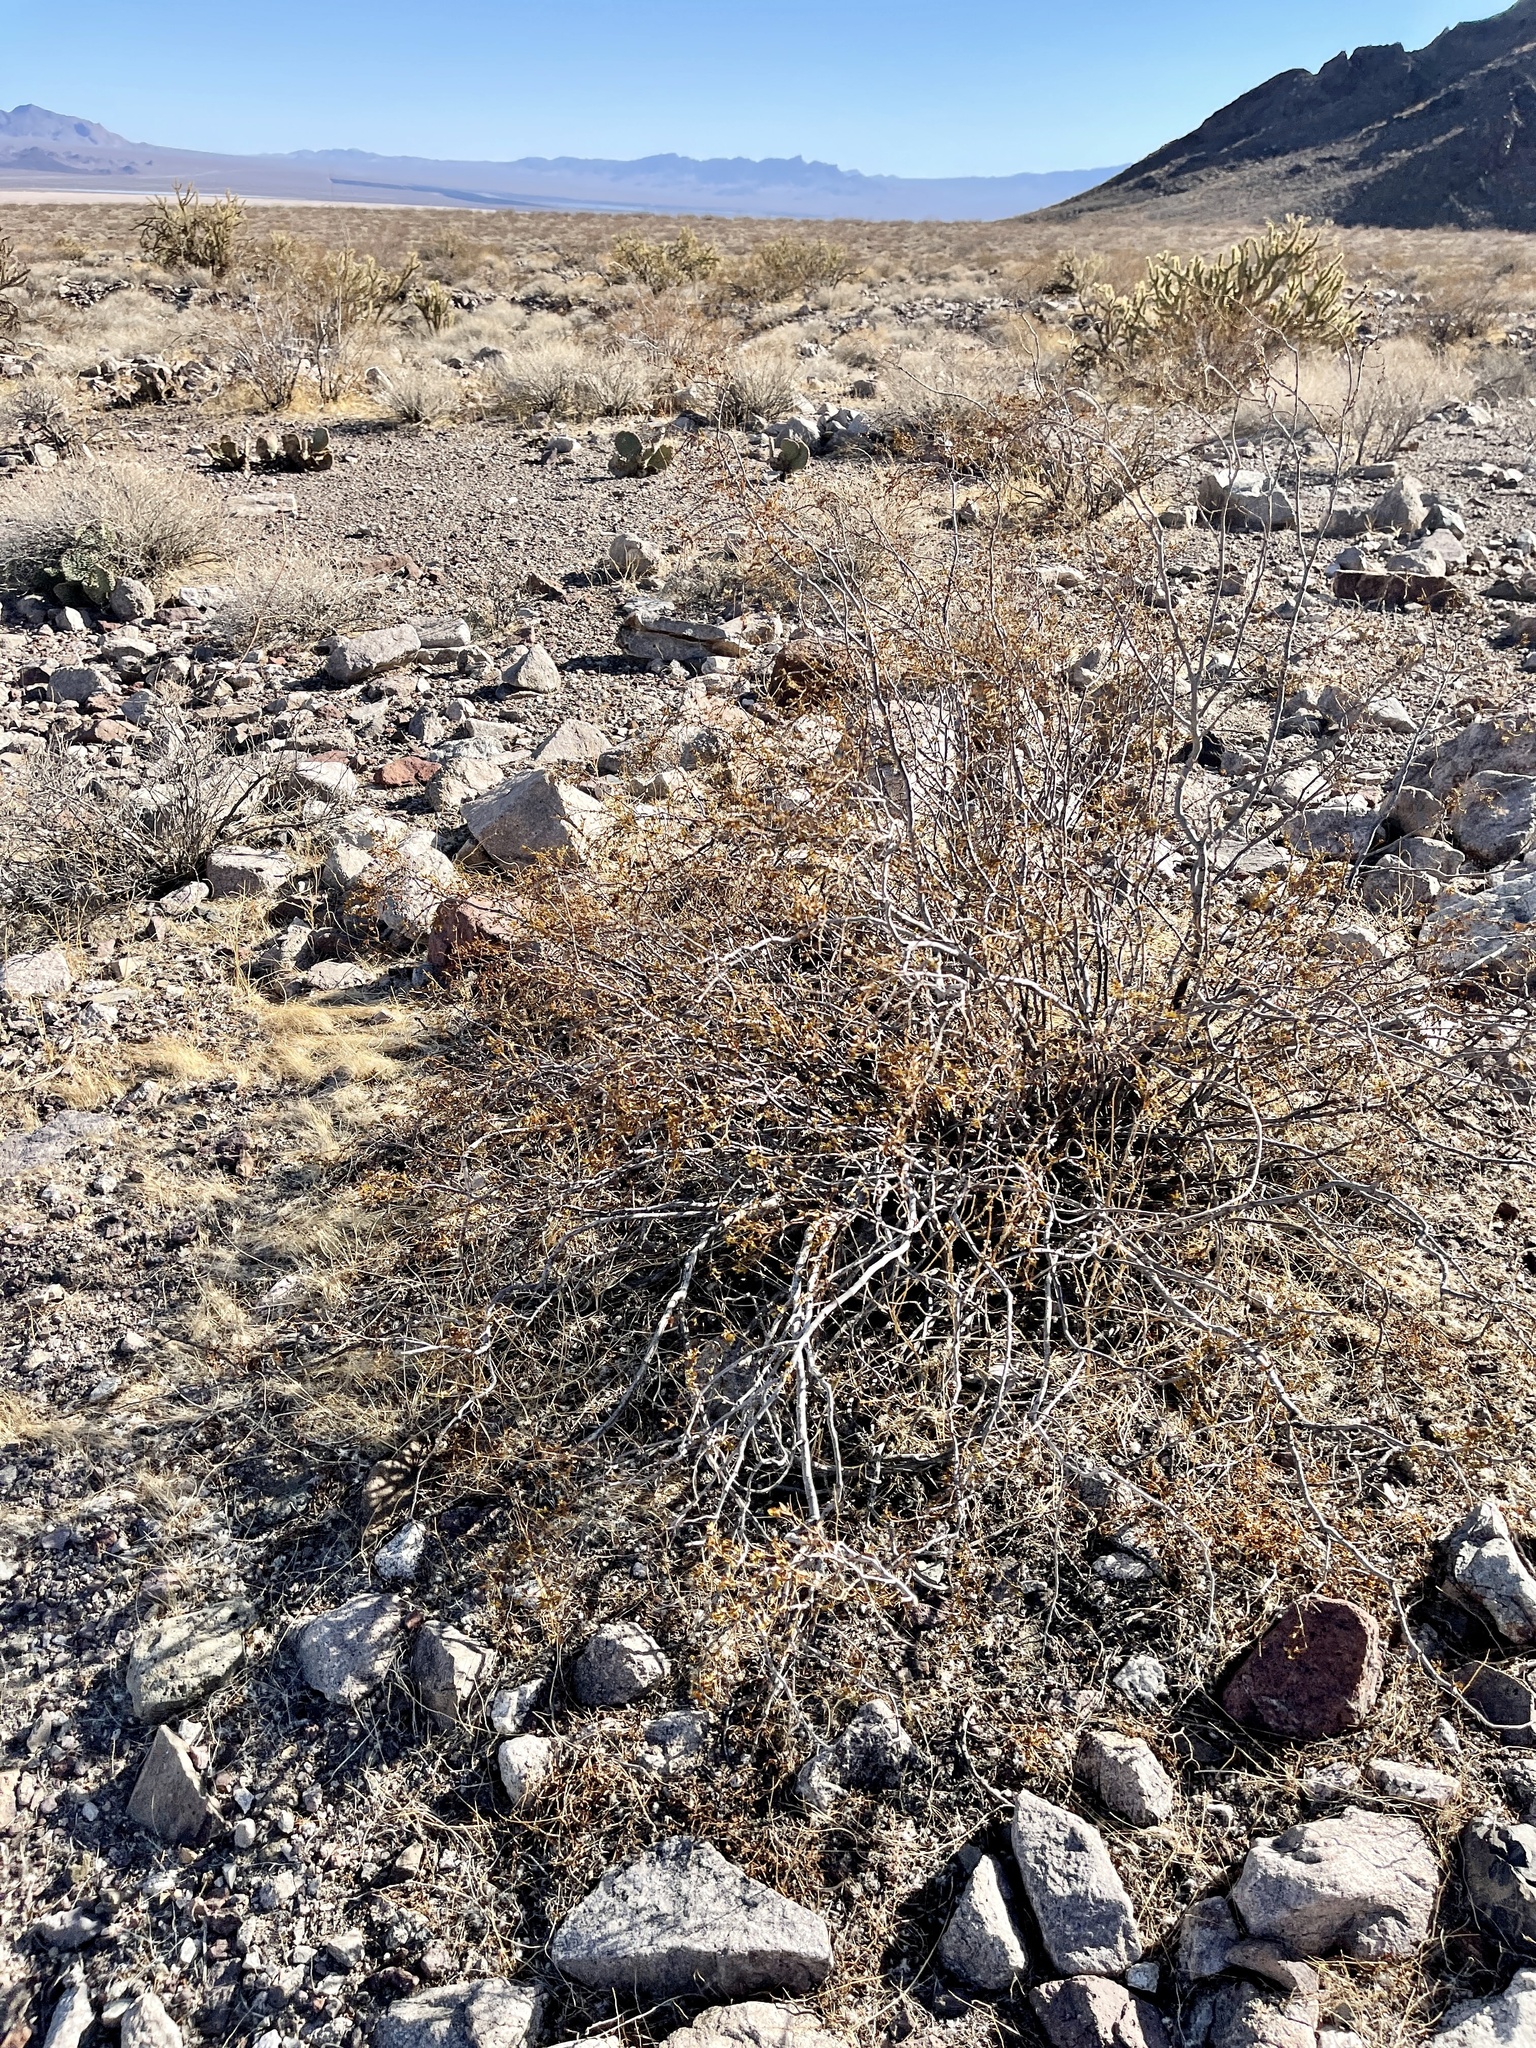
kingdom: Plantae
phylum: Tracheophyta
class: Magnoliopsida
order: Zygophyllales
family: Zygophyllaceae
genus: Larrea
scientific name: Larrea tridentata
